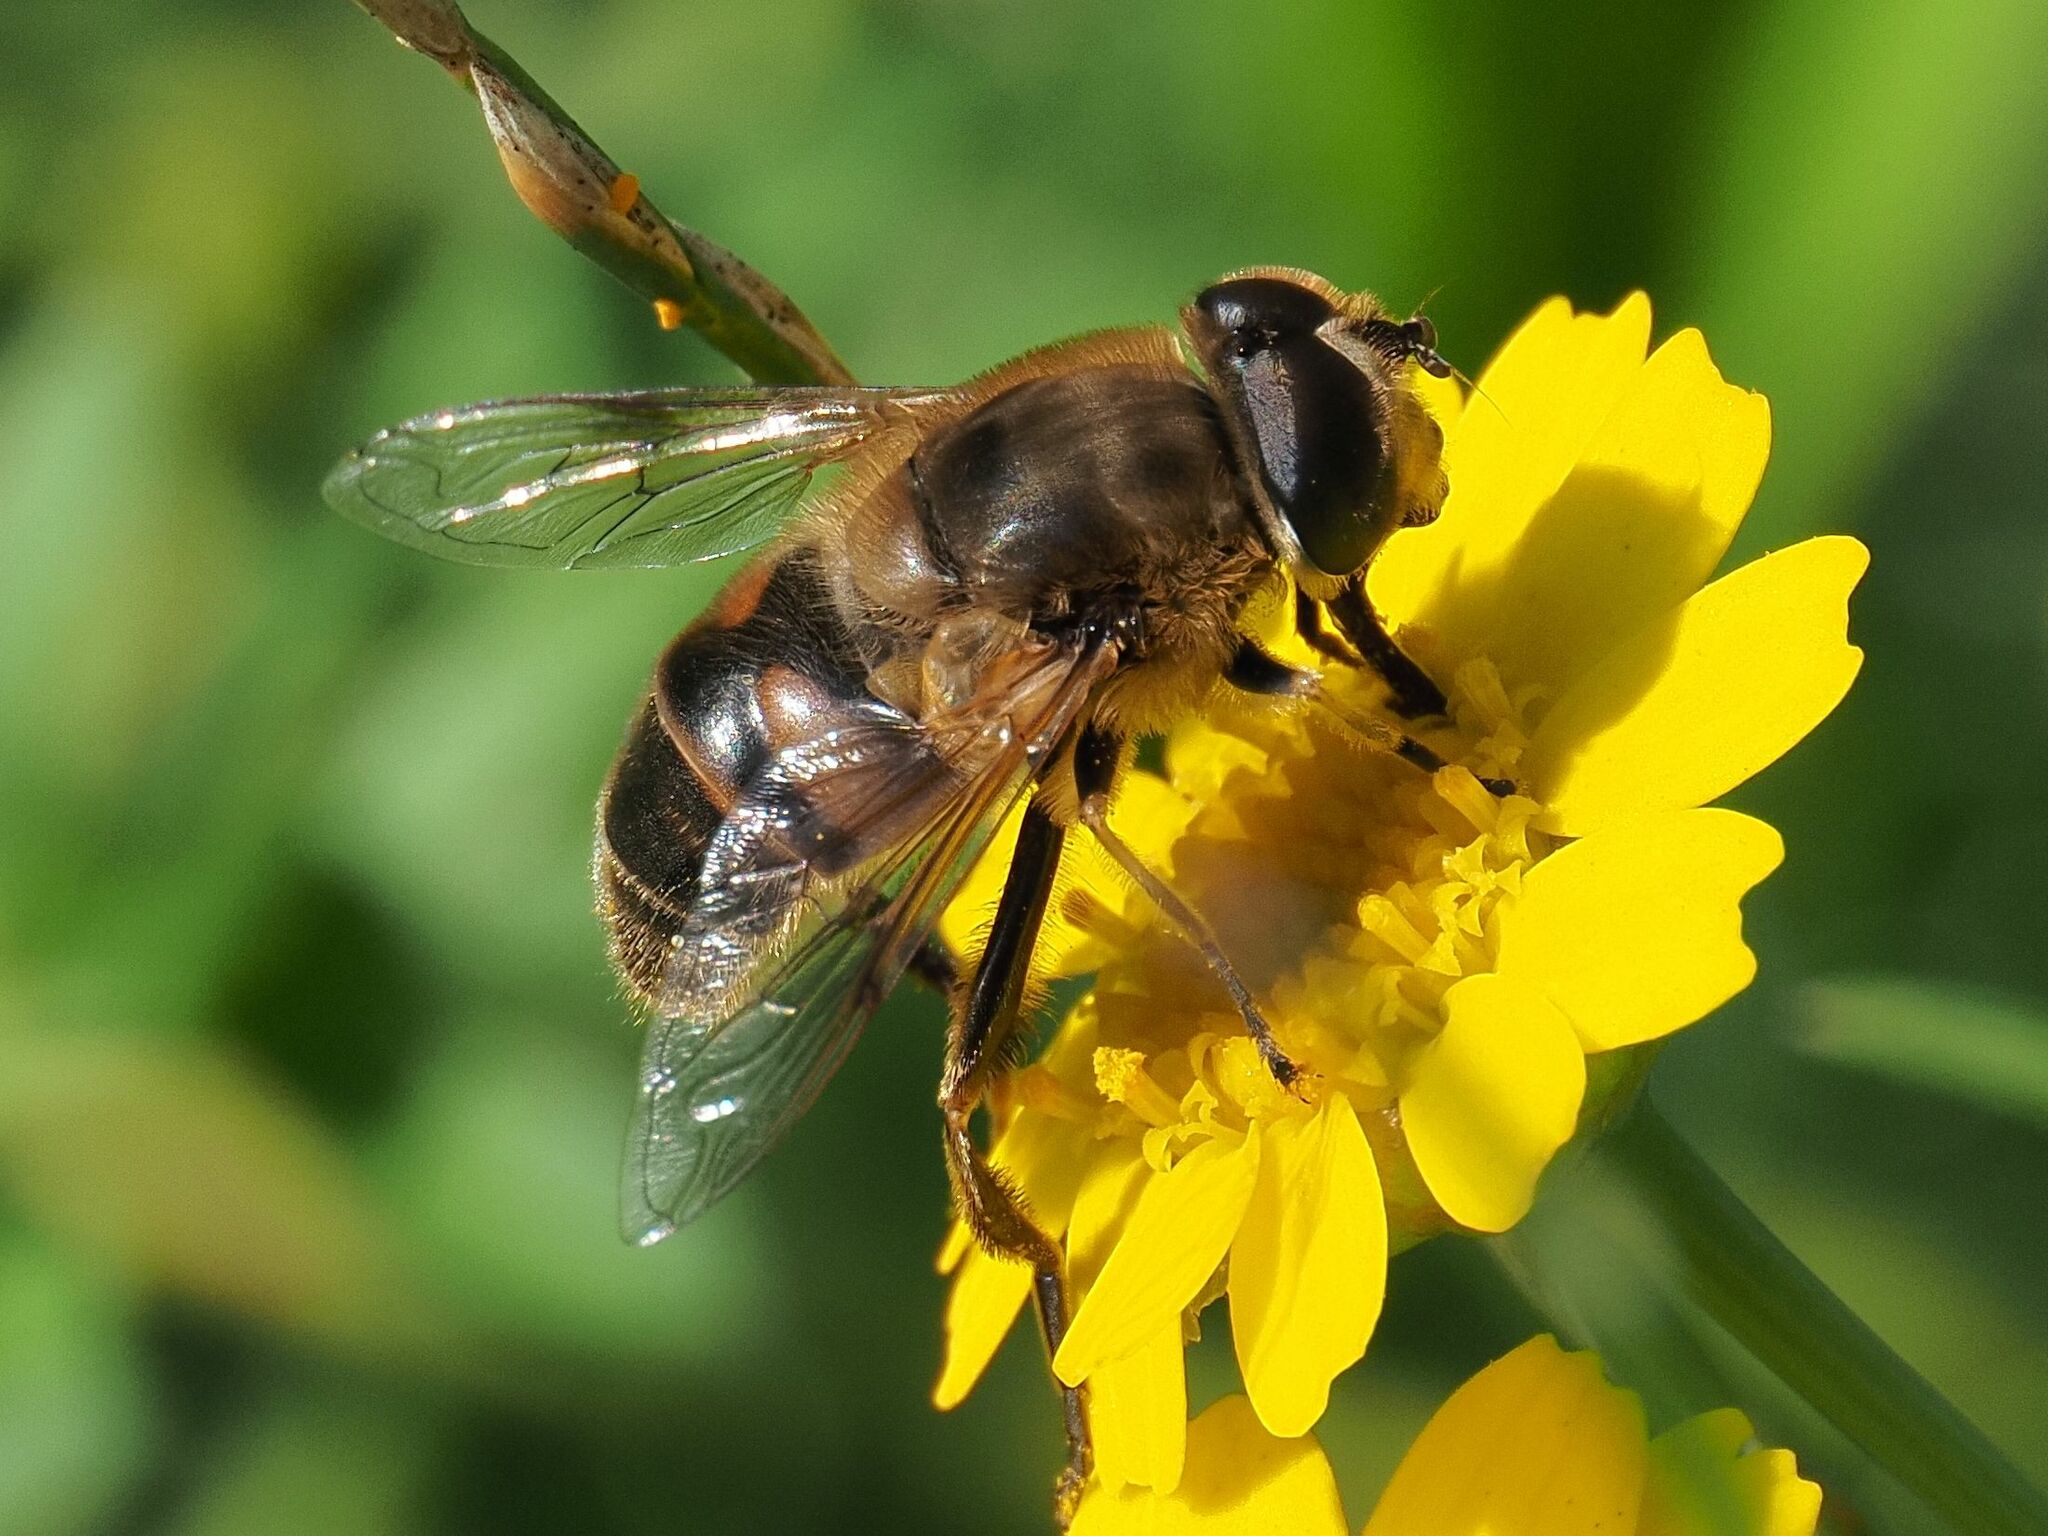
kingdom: Animalia
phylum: Arthropoda
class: Insecta
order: Diptera
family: Syrphidae
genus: Eristalis
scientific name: Eristalis tenax
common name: Drone fly
